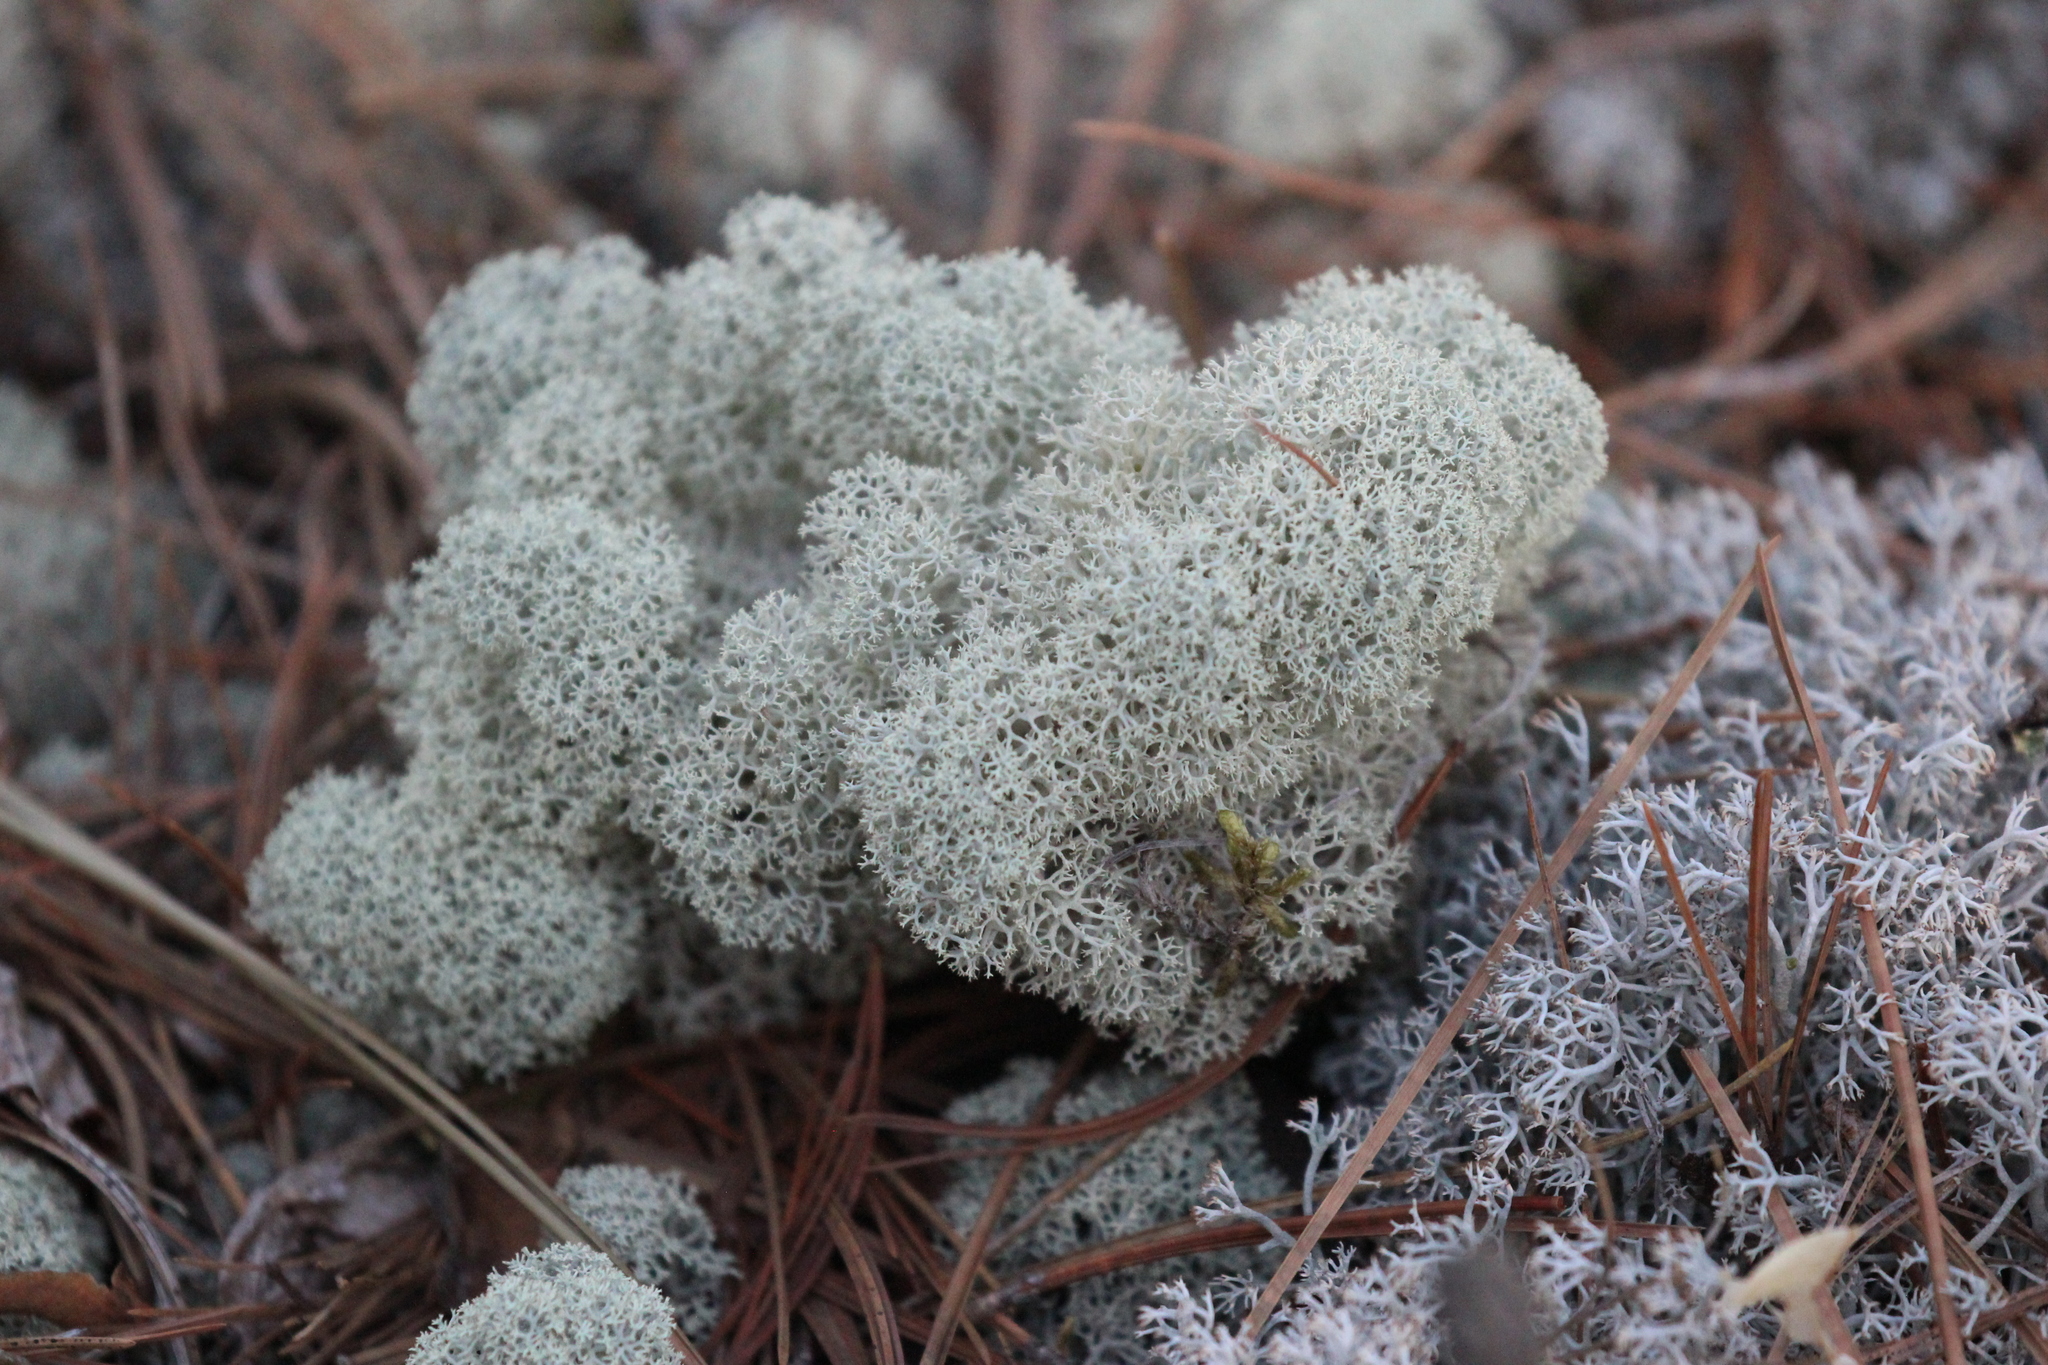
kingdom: Fungi
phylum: Ascomycota
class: Lecanoromycetes
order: Lecanorales
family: Cladoniaceae
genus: Cladonia
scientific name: Cladonia stellaris
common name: Star-tipped reindeer lichen
